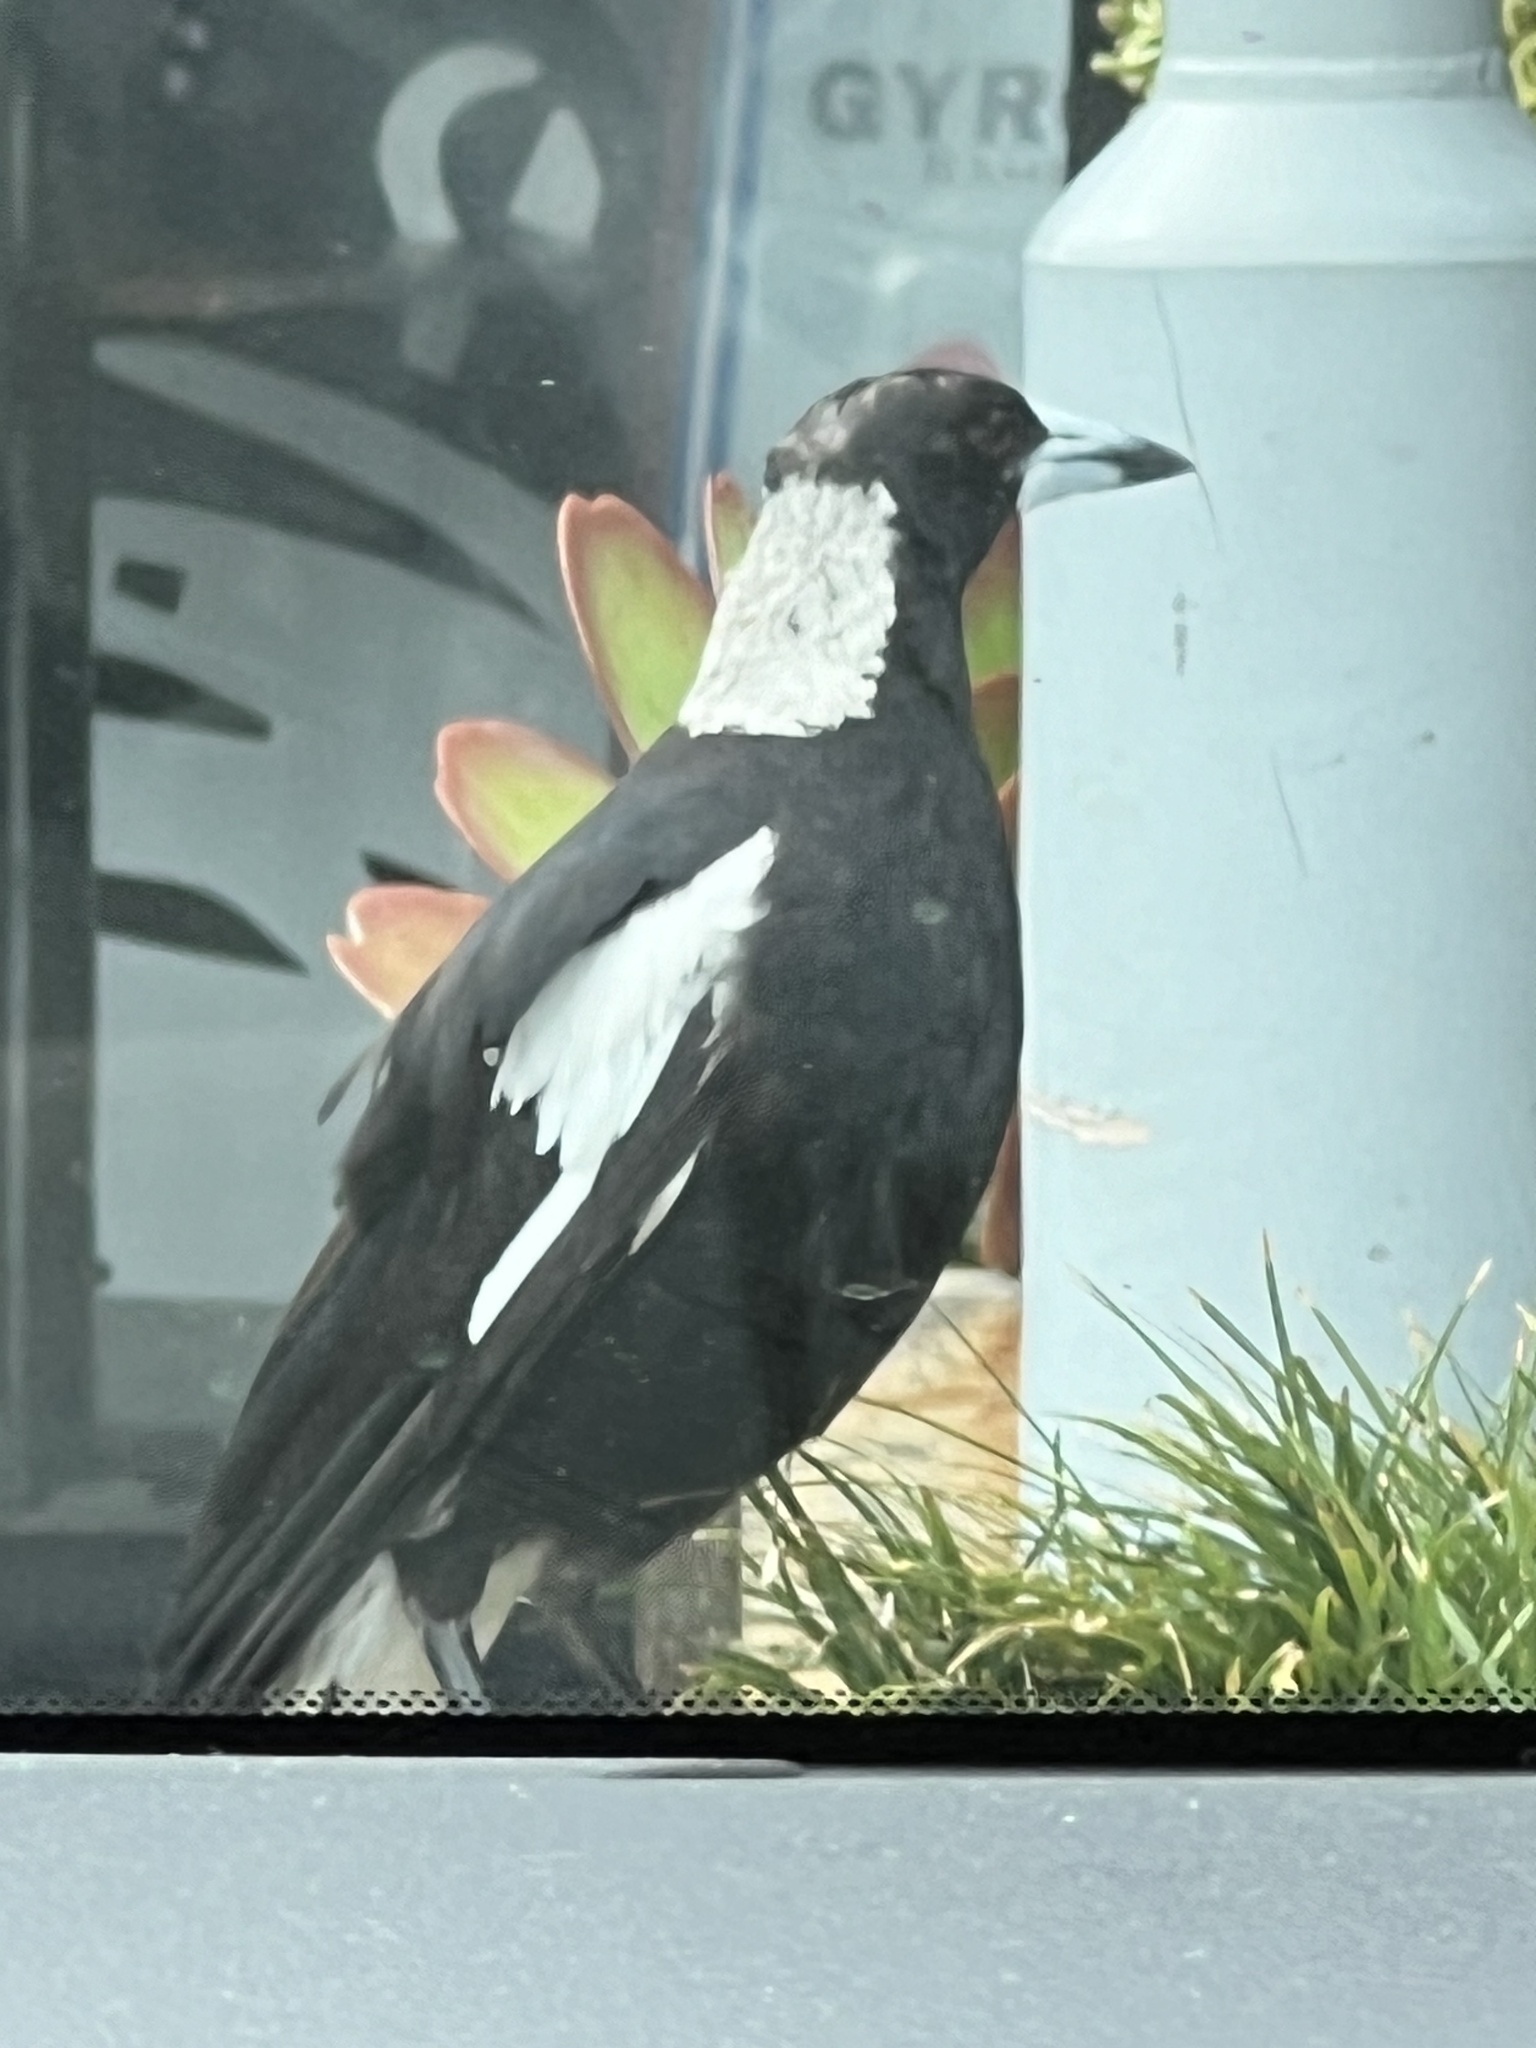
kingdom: Animalia
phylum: Chordata
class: Aves
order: Passeriformes
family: Cracticidae
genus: Gymnorhina
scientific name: Gymnorhina tibicen
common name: Australian magpie
